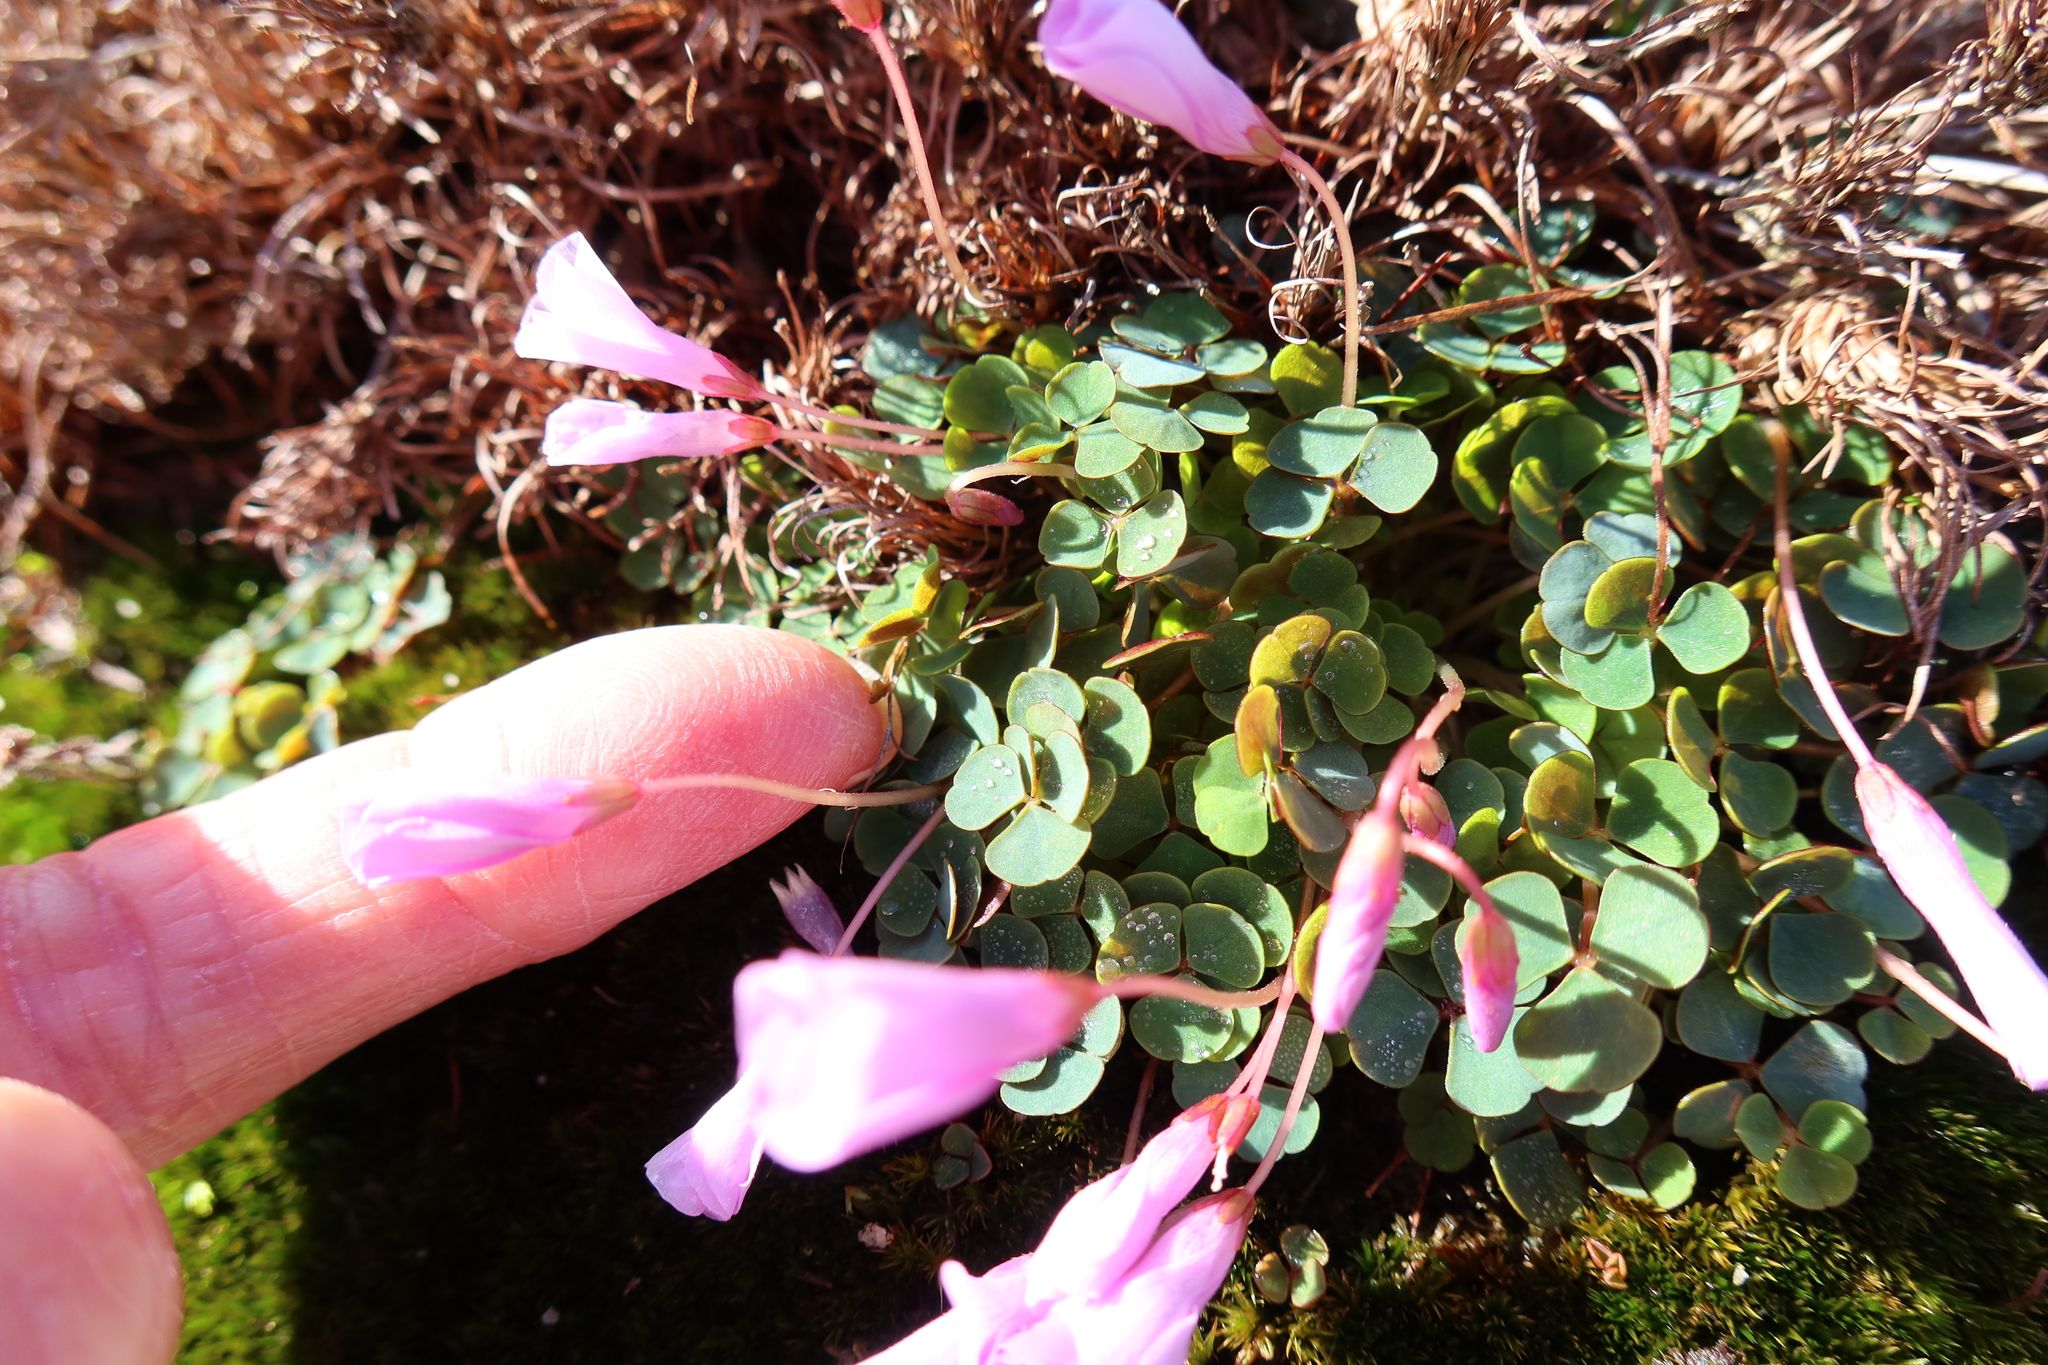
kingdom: Plantae
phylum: Tracheophyta
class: Magnoliopsida
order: Oxalidales
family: Oxalidaceae
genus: Oxalis
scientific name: Oxalis commutata
